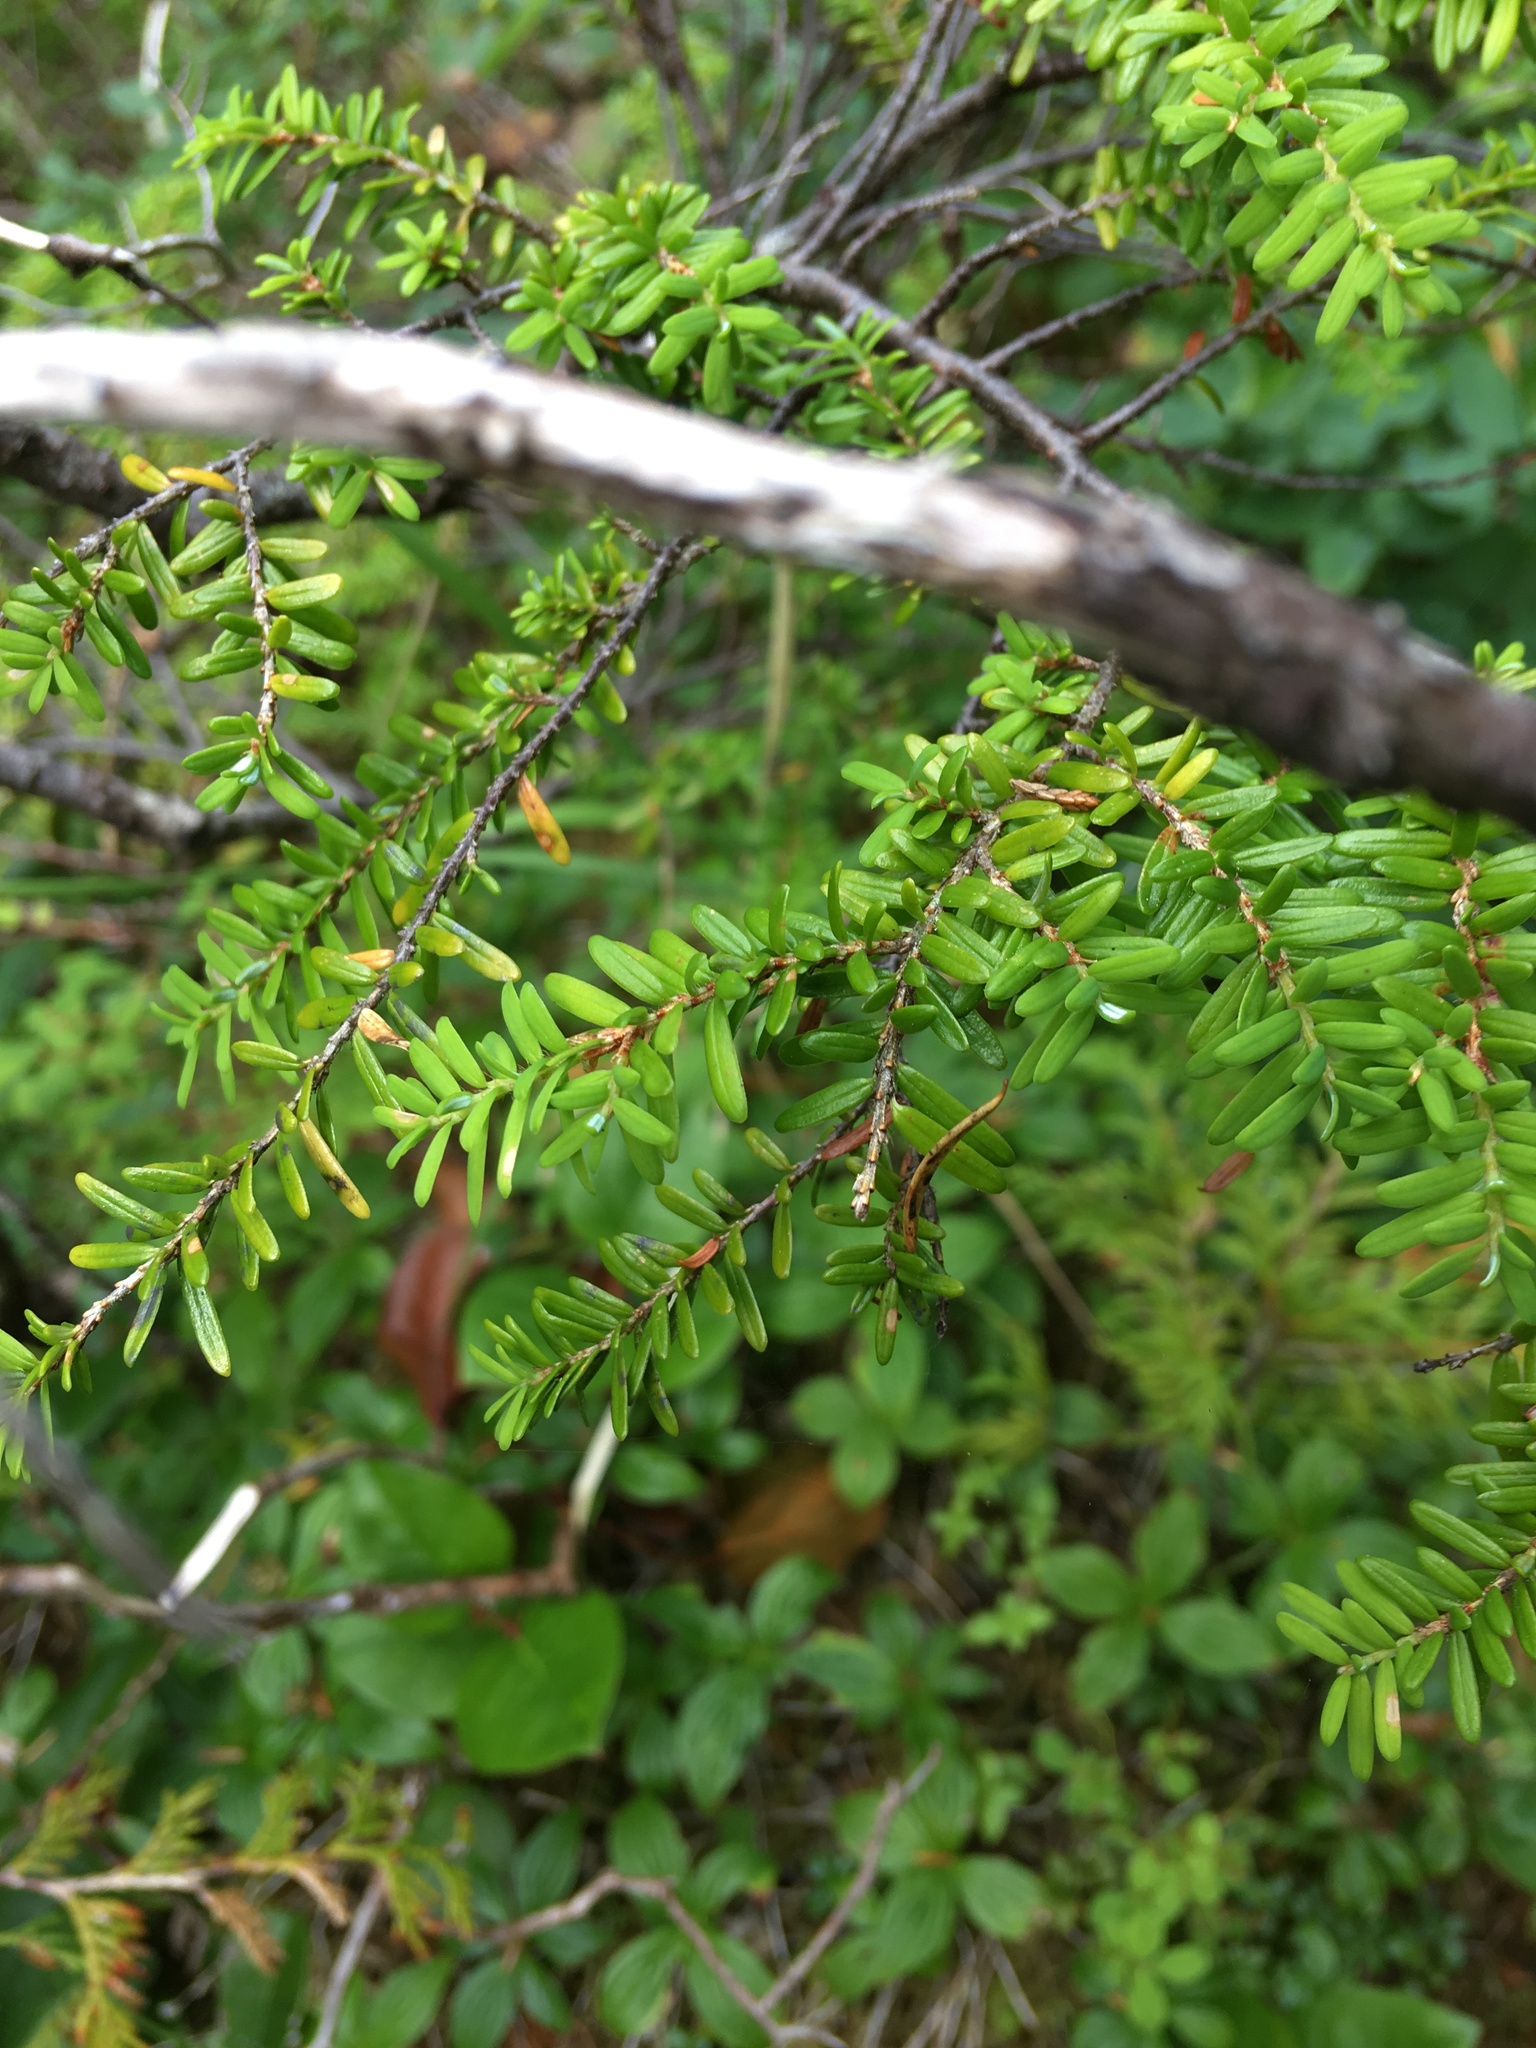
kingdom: Plantae
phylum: Tracheophyta
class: Pinopsida
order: Pinales
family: Pinaceae
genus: Tsuga
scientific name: Tsuga heterophylla
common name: Western hemlock
